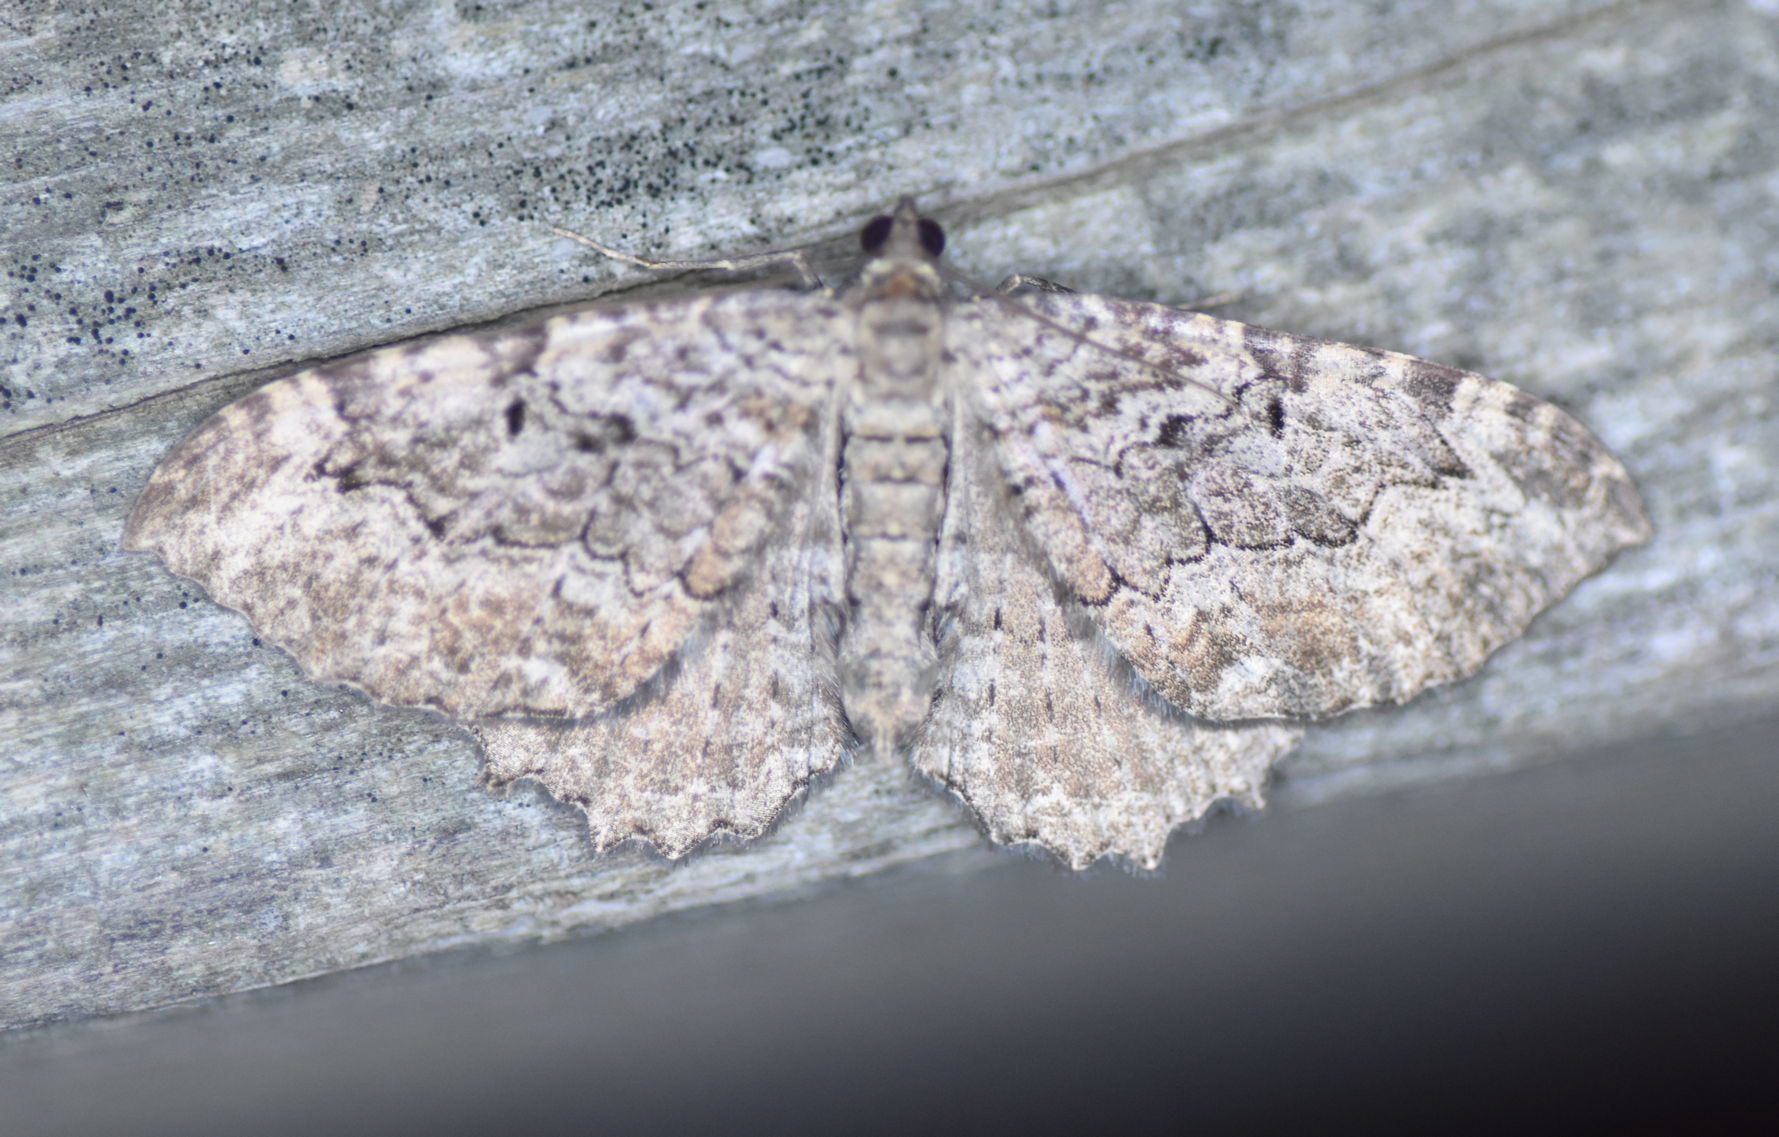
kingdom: Animalia
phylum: Arthropoda
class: Insecta
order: Lepidoptera
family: Geometridae
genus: Rheumaptera
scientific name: Rheumaptera
